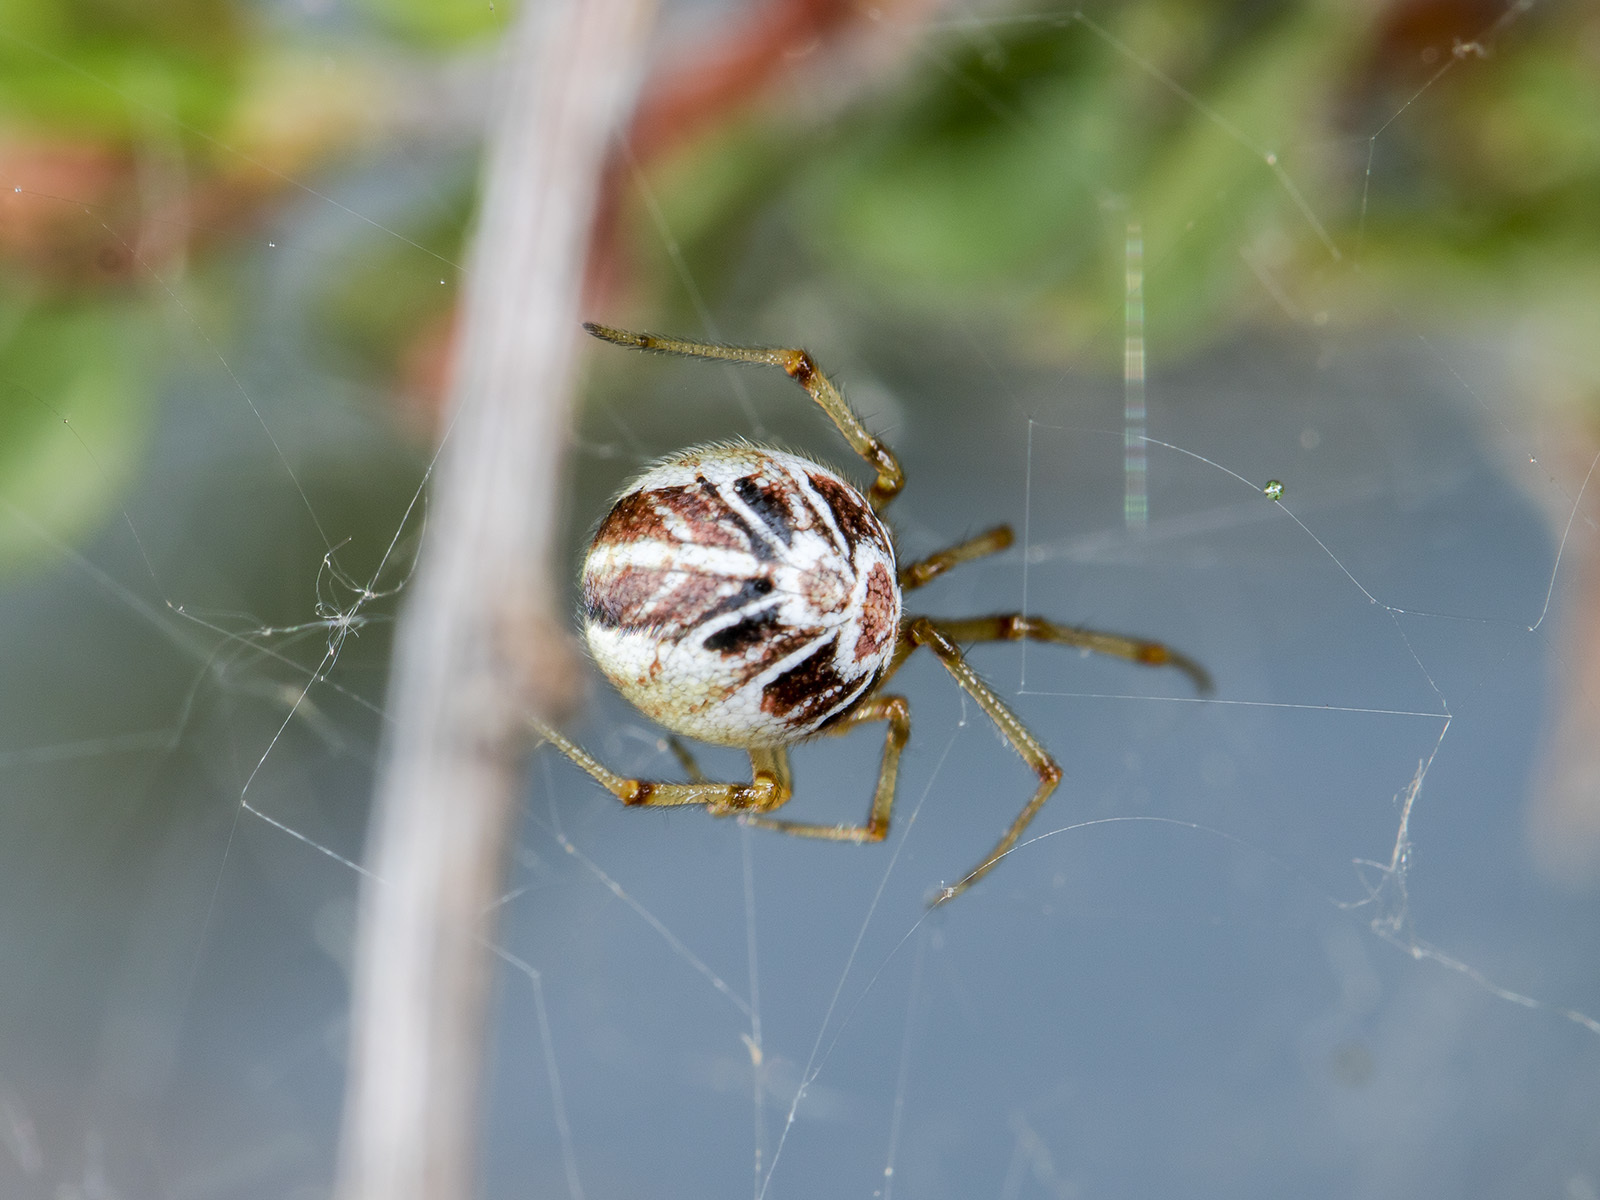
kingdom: Animalia
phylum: Arthropoda
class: Arachnida
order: Araneae
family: Theridiidae
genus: Phylloneta
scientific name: Phylloneta impressa
